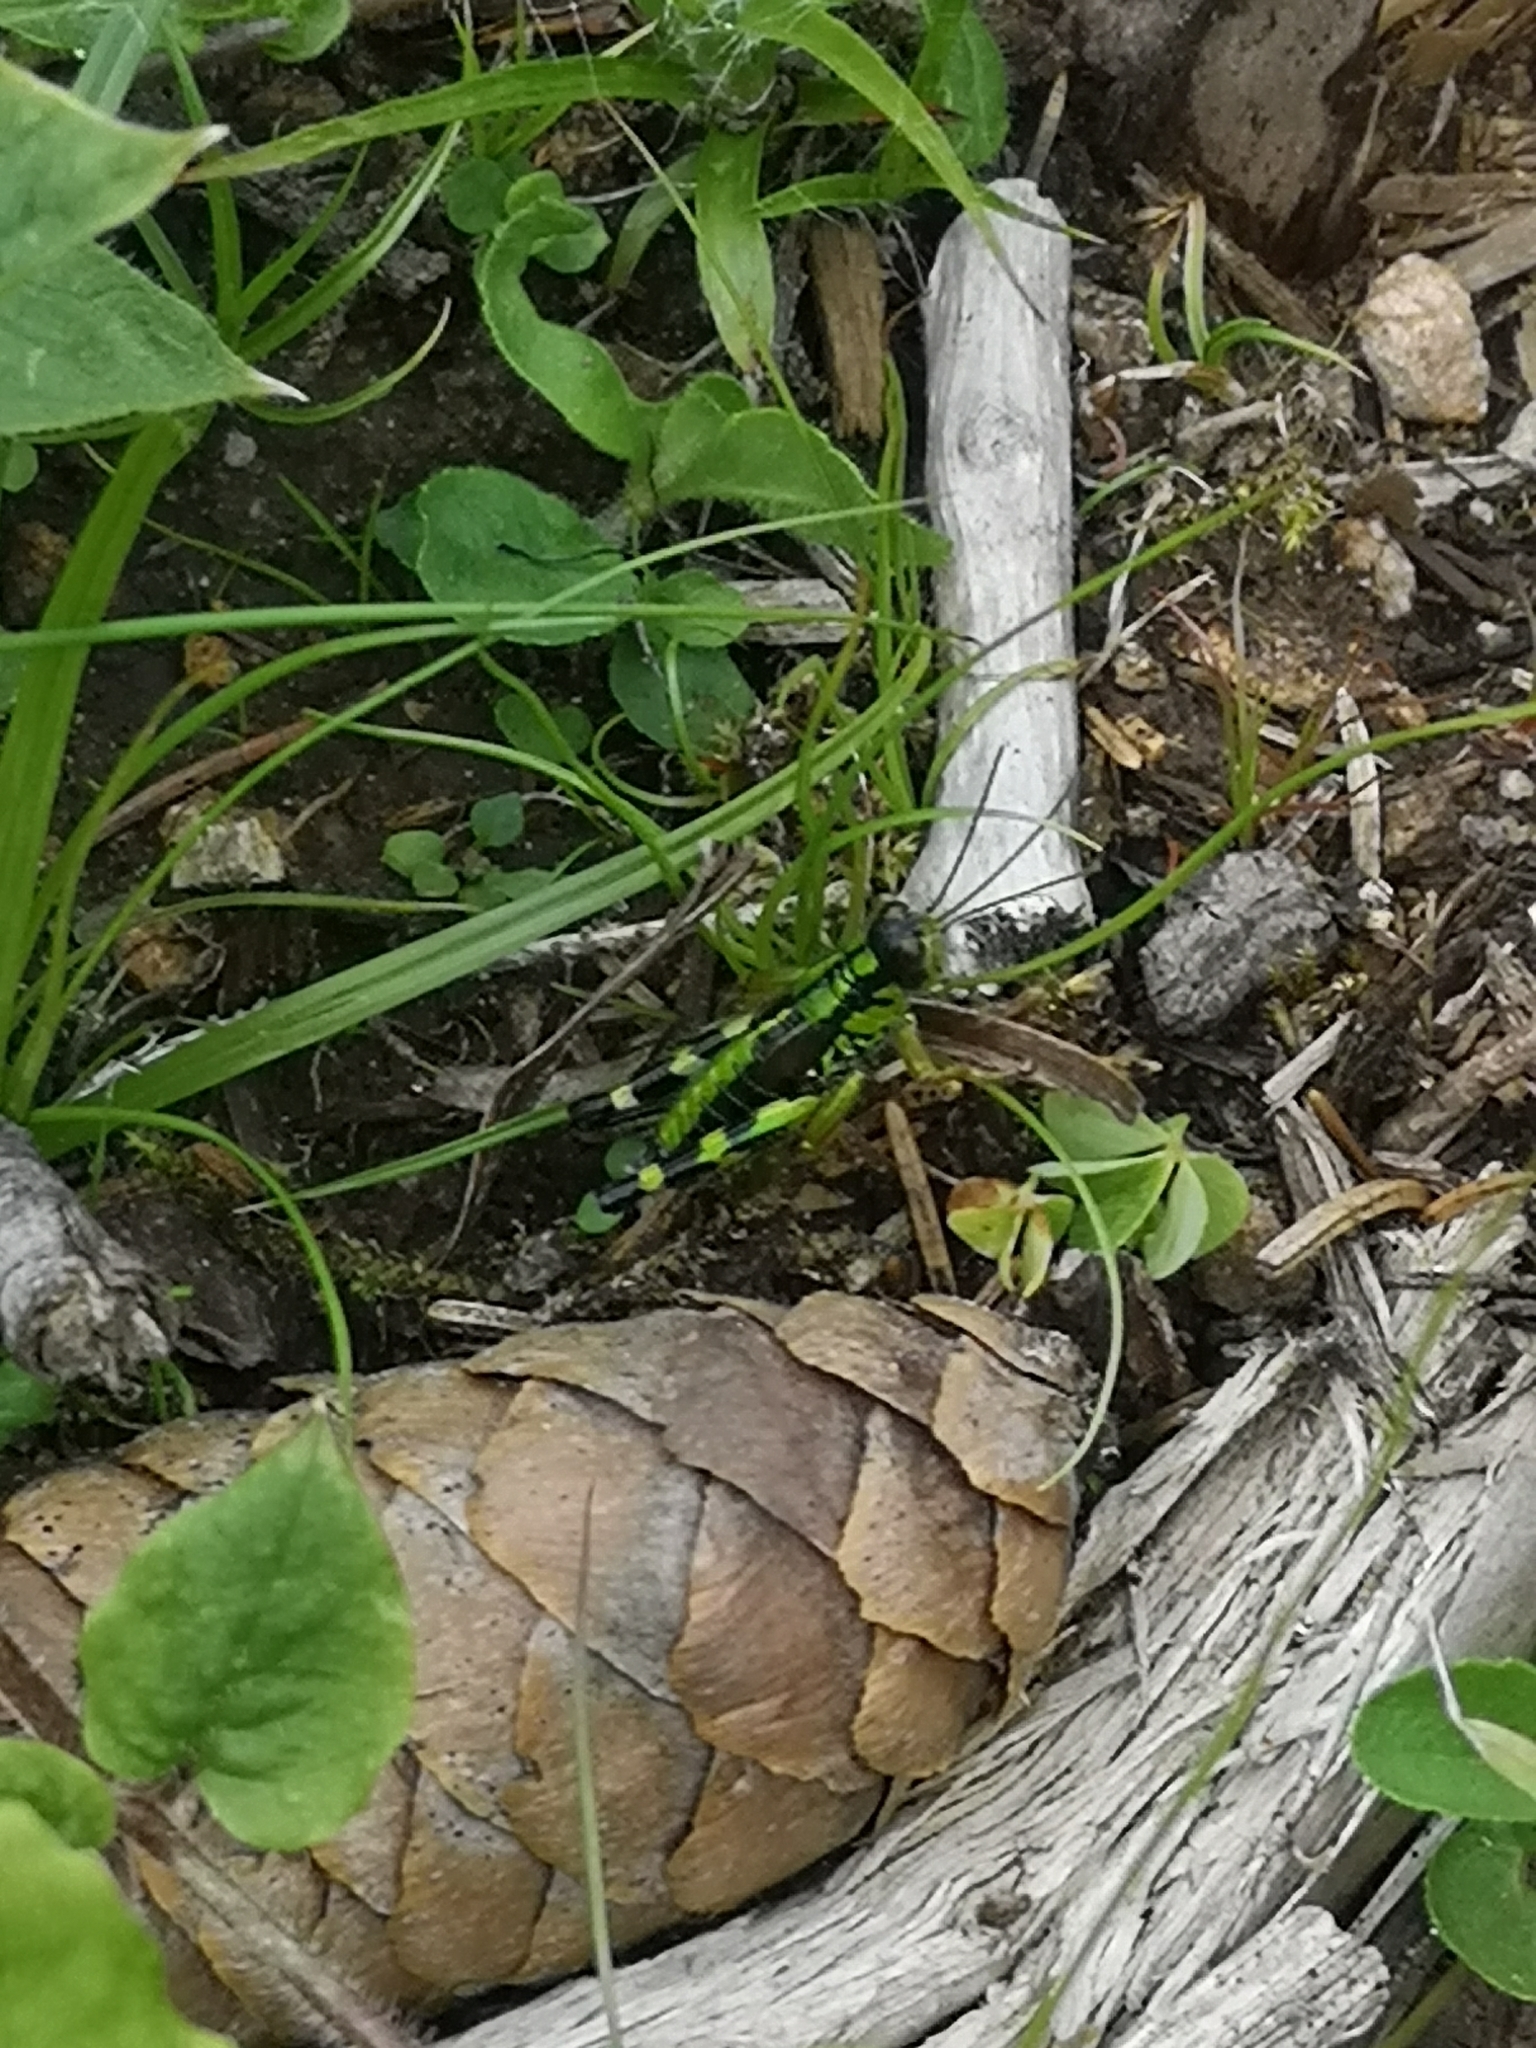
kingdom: Animalia
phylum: Arthropoda
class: Insecta
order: Orthoptera
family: Acrididae
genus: Miramella
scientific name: Miramella alpina
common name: Green mountain grasshopper
